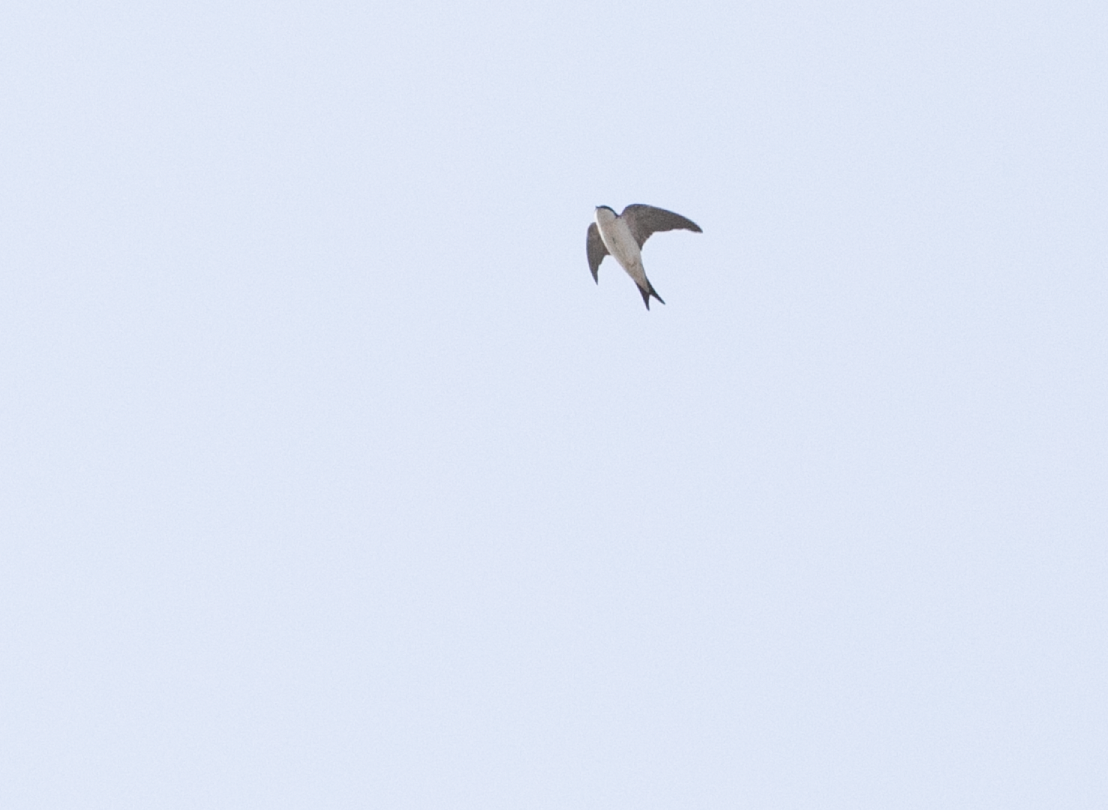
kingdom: Animalia
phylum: Chordata
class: Aves
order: Passeriformes
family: Hirundinidae
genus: Delichon
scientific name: Delichon urbicum
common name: Common house martin
